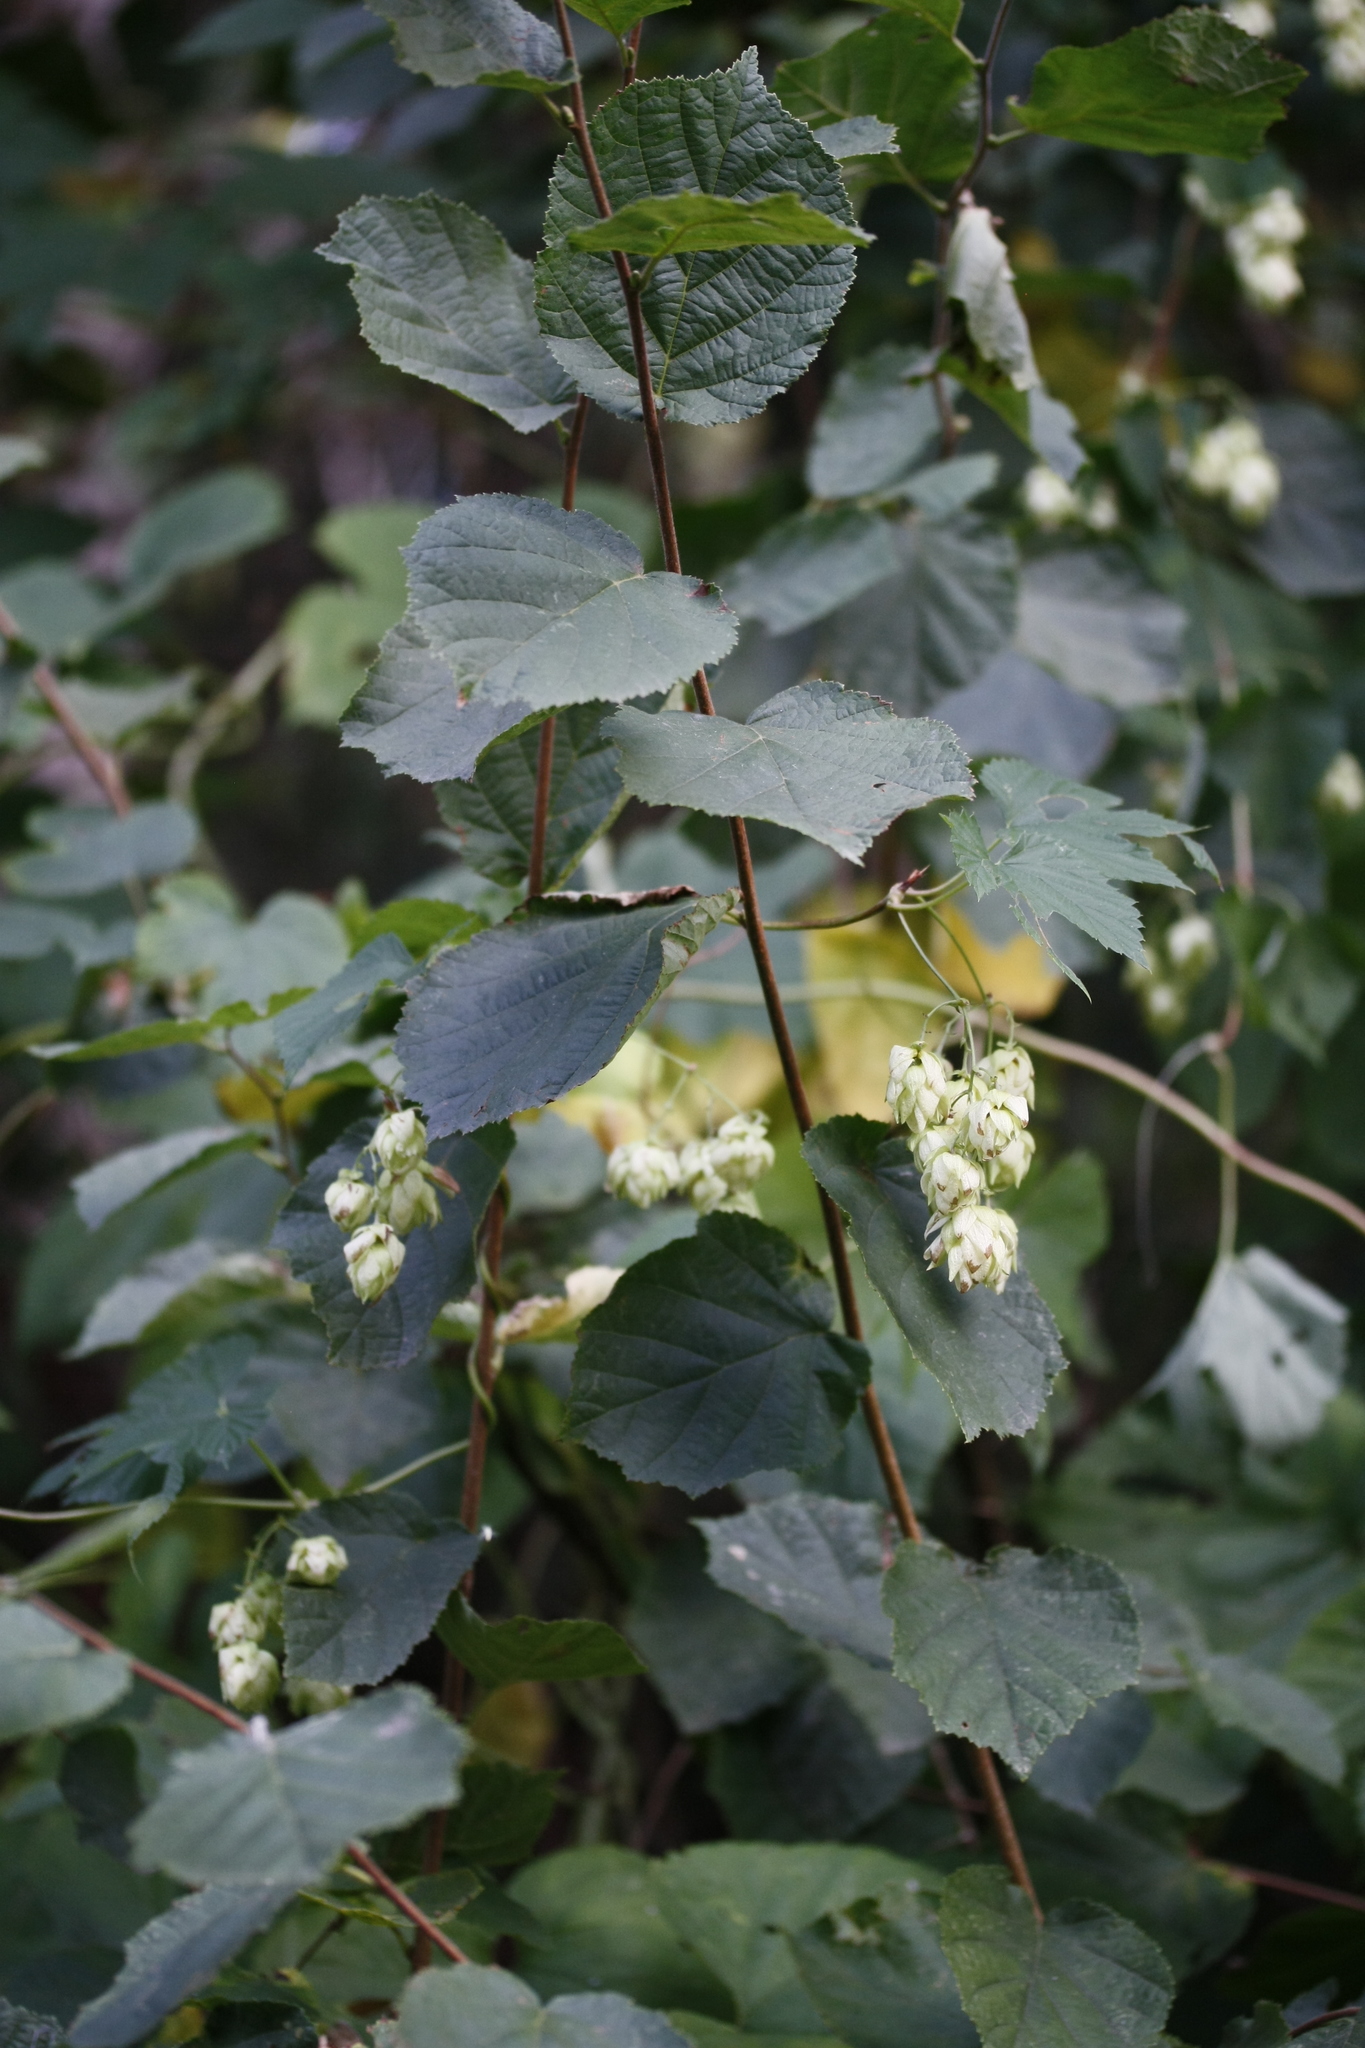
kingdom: Plantae
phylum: Tracheophyta
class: Magnoliopsida
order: Rosales
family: Cannabaceae
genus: Humulus
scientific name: Humulus lupulus
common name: Hop
